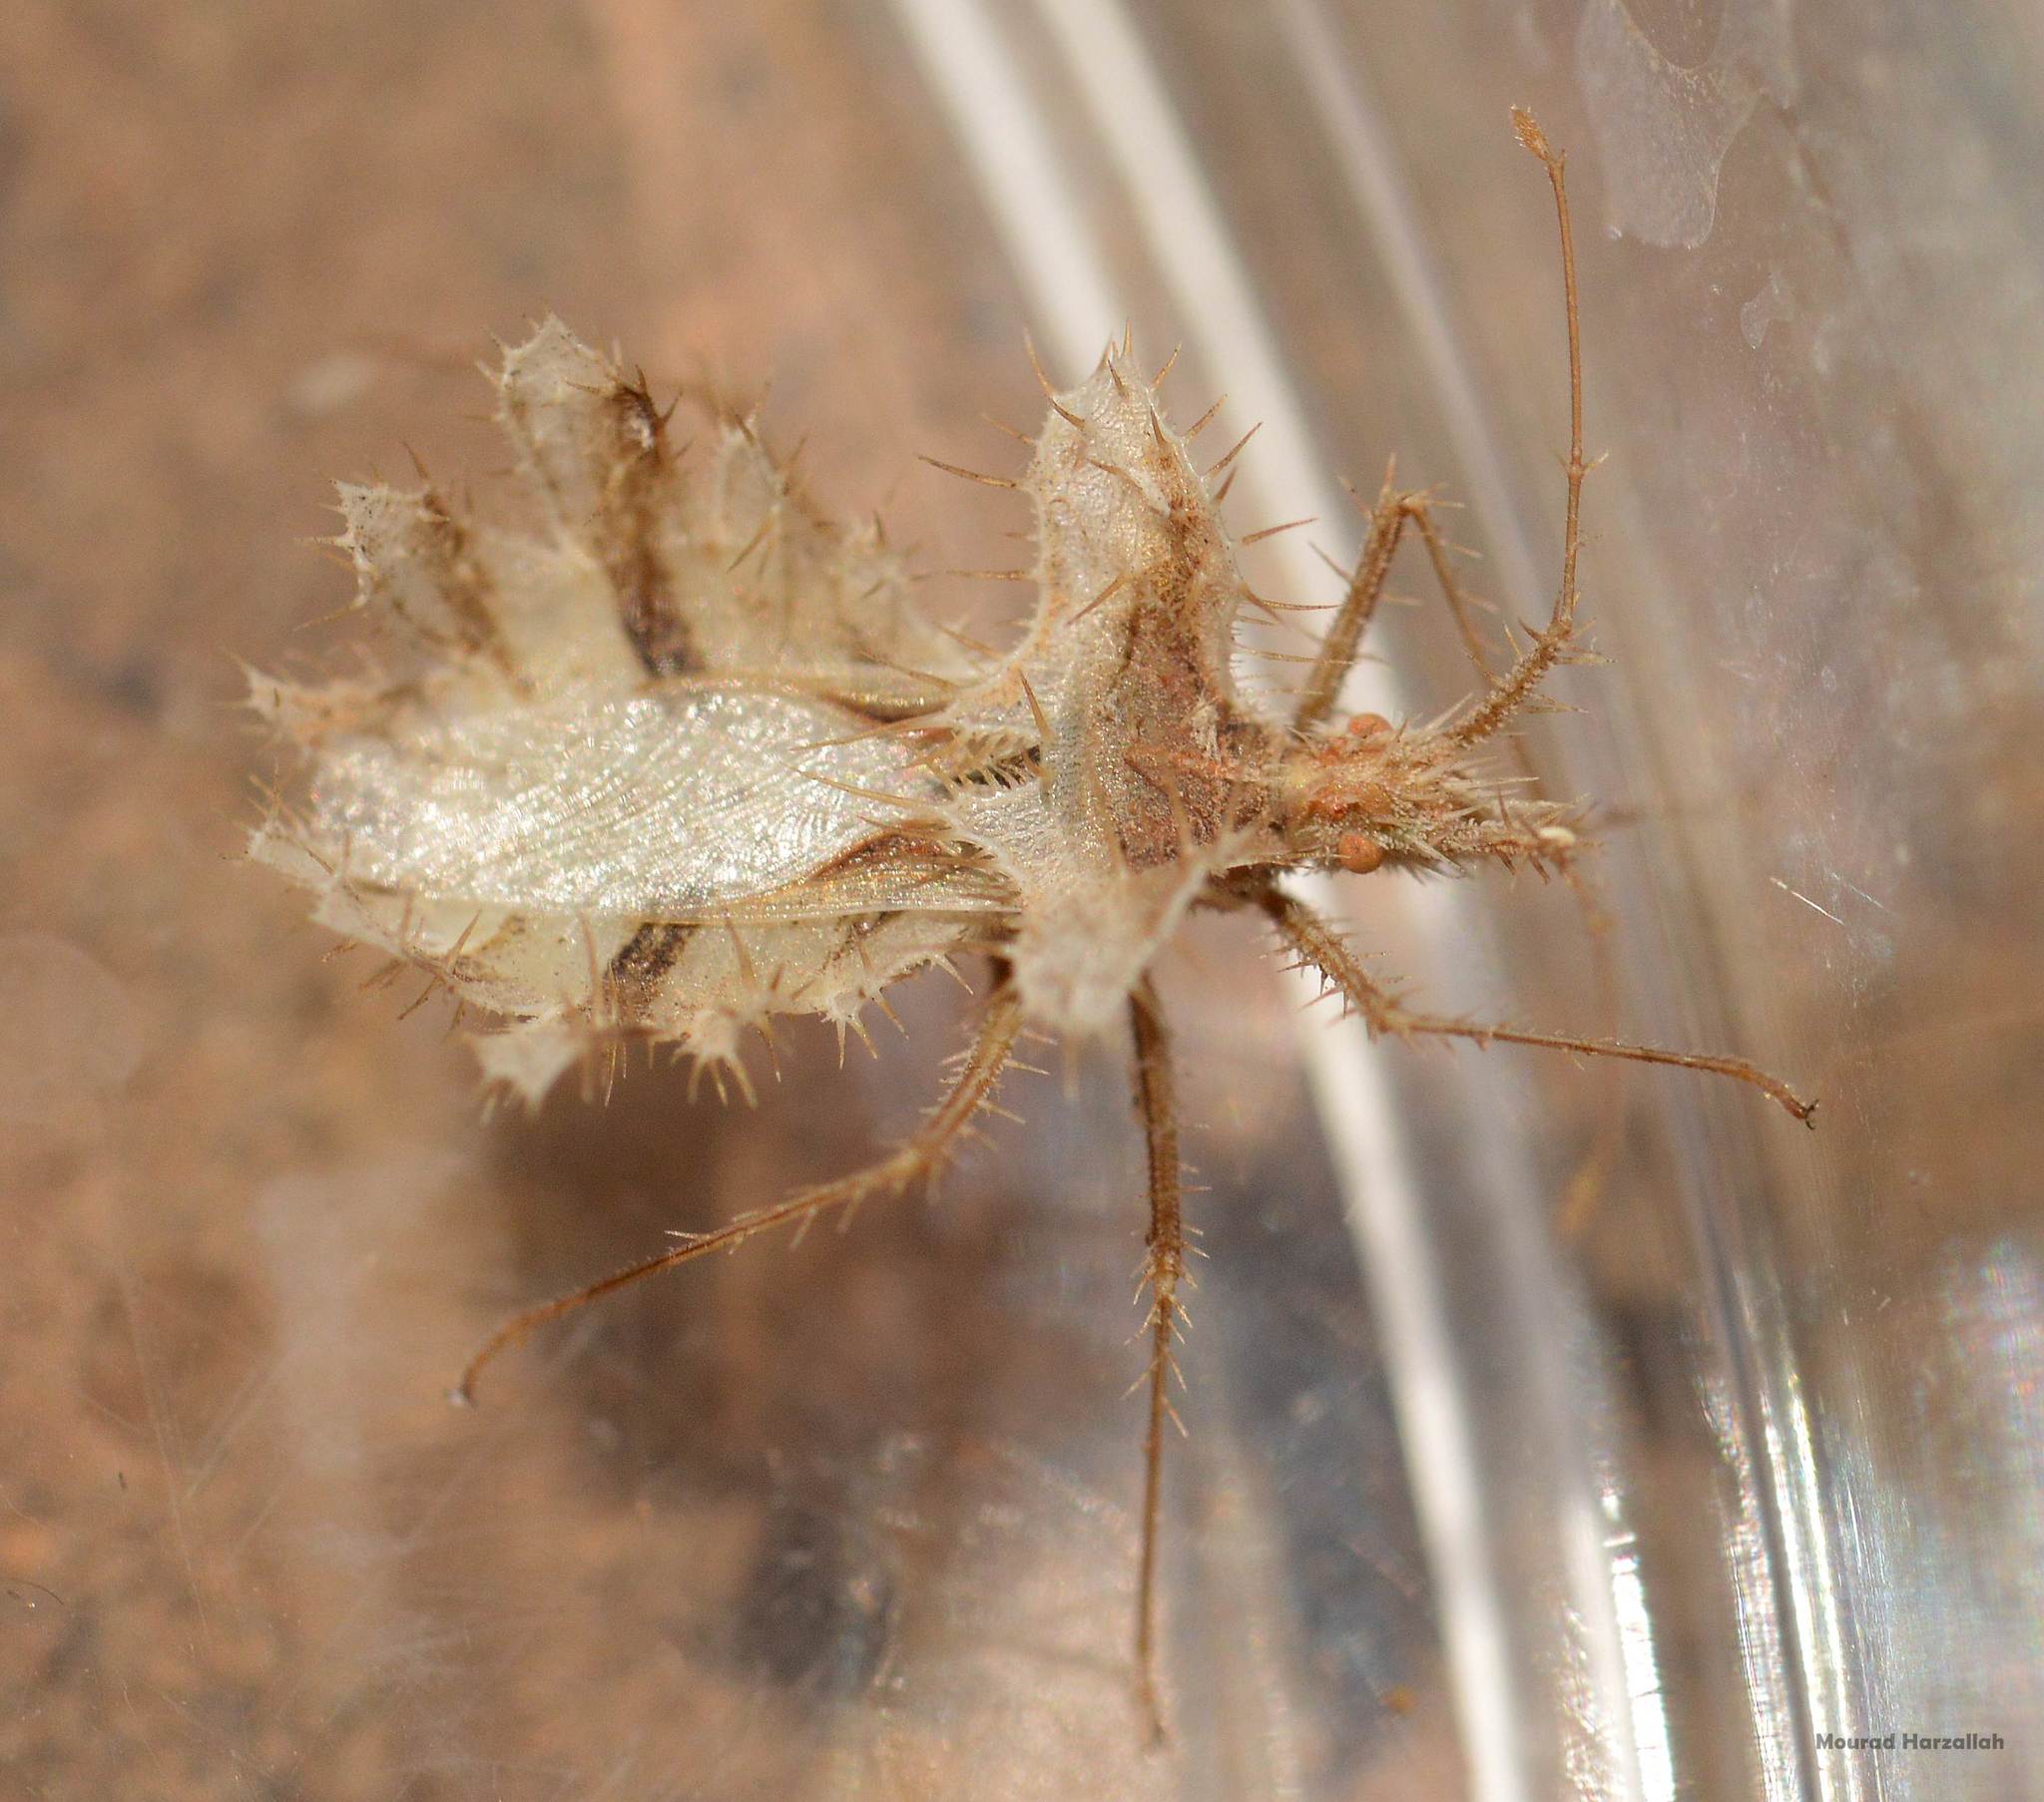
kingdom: Animalia
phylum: Arthropoda
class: Insecta
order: Hemiptera
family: Coreidae
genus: Phyllomorpha
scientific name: Phyllomorpha laciniata
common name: Golden egg bug
